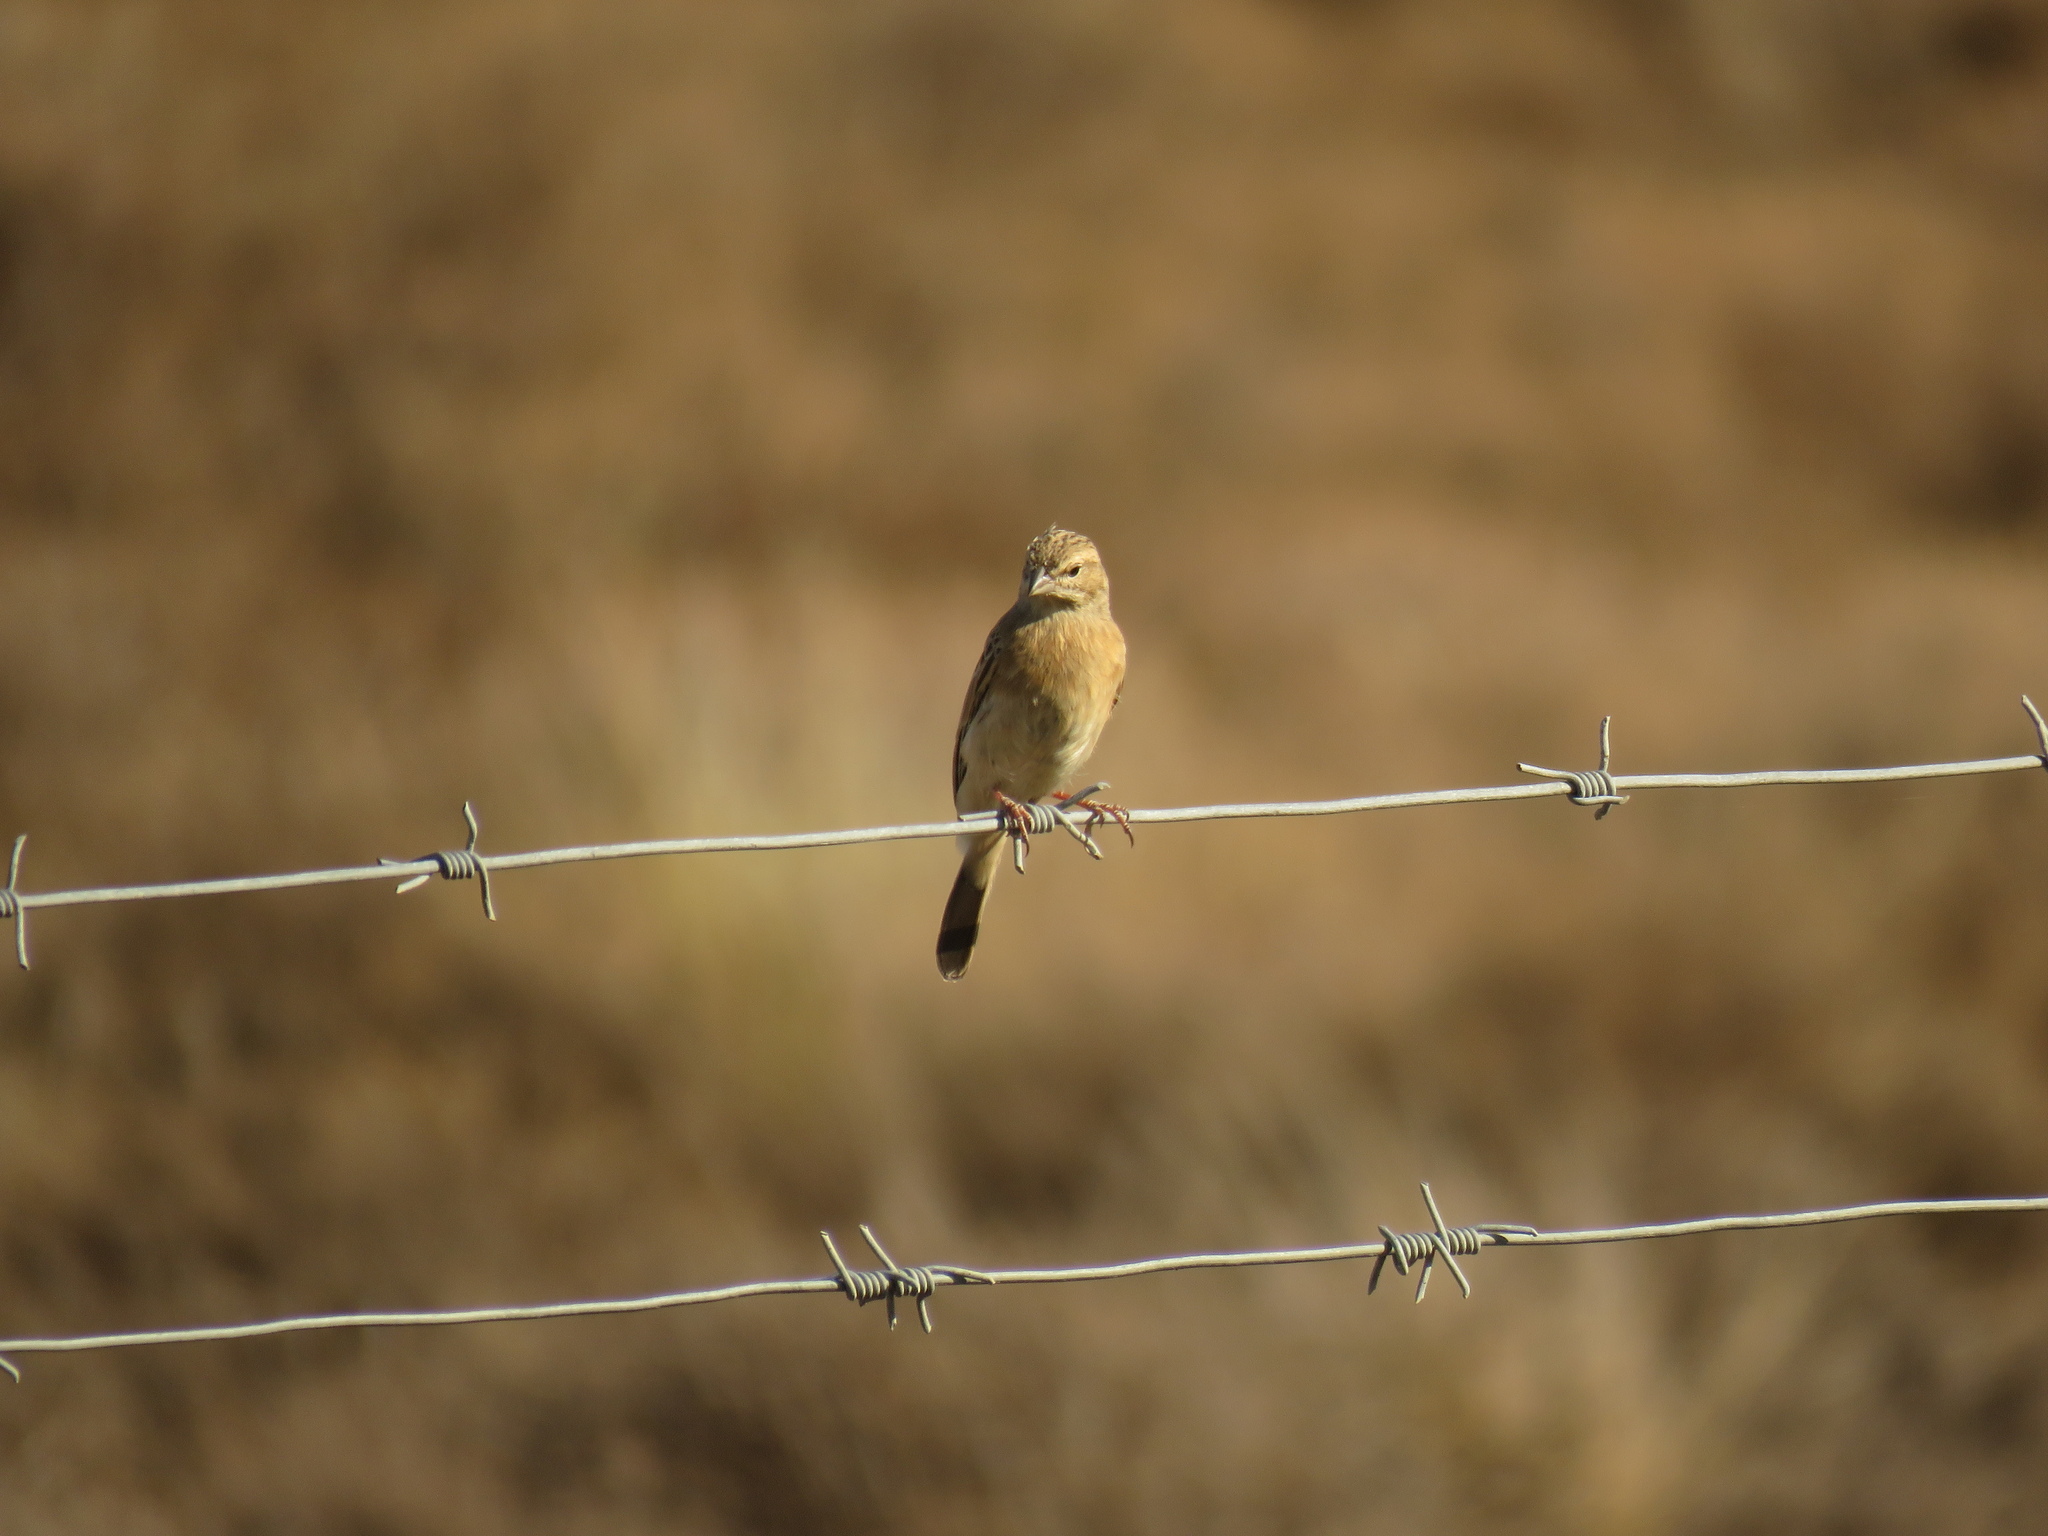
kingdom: Animalia
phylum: Chordata
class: Aves
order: Passeriformes
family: Emberizidae
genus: Emberiza
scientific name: Emberiza impetuani
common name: Lark-like bunting
